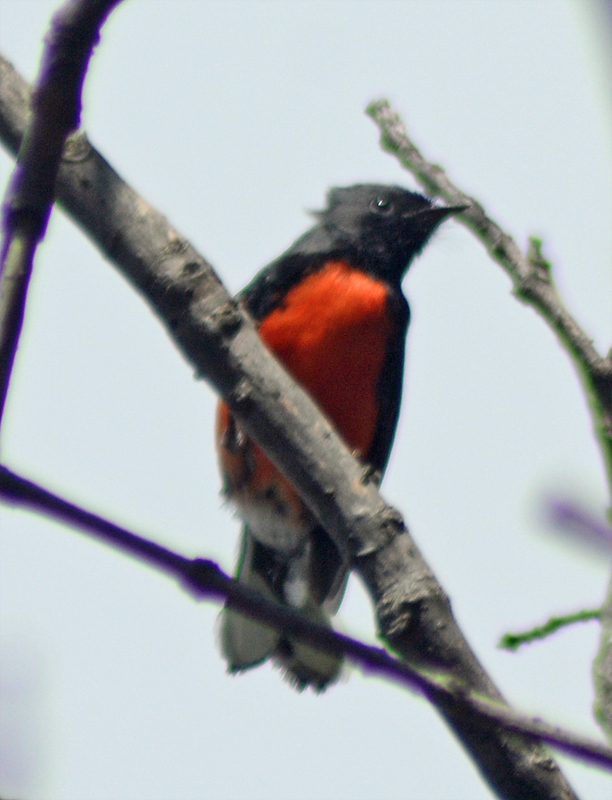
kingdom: Animalia
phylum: Chordata
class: Aves
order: Passeriformes
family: Parulidae
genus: Myioborus
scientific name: Myioborus pictus
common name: Painted whitestart
